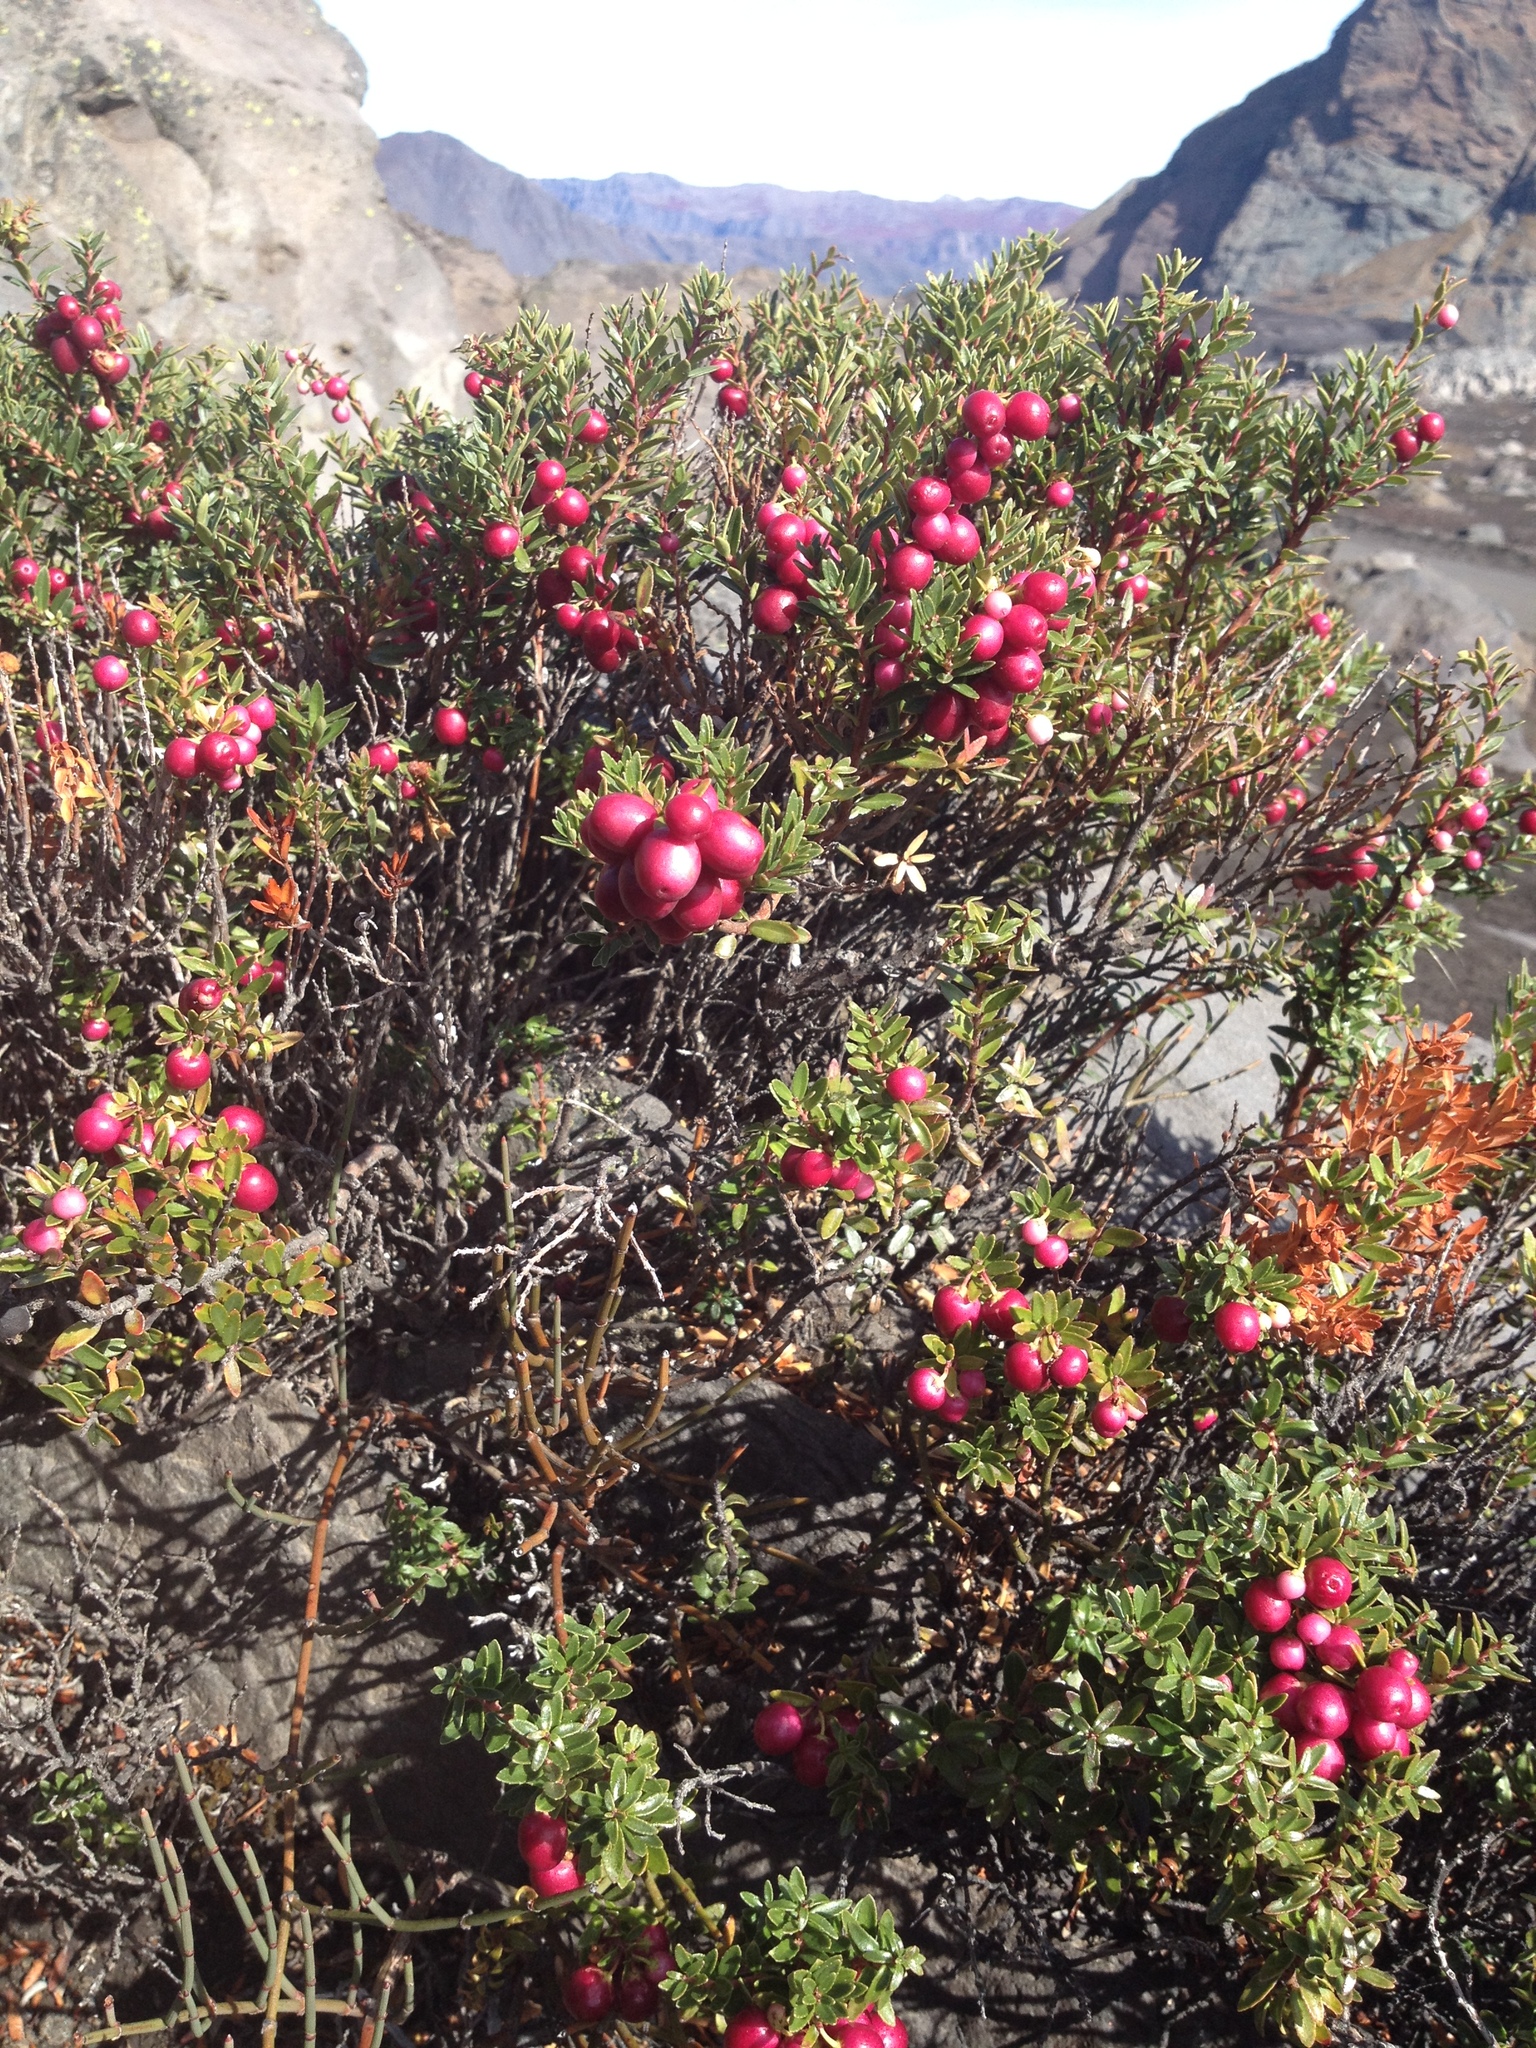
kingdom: Plantae
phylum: Tracheophyta
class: Magnoliopsida
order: Ericales
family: Ericaceae
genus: Gaultheria
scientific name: Gaultheria poeppigii
